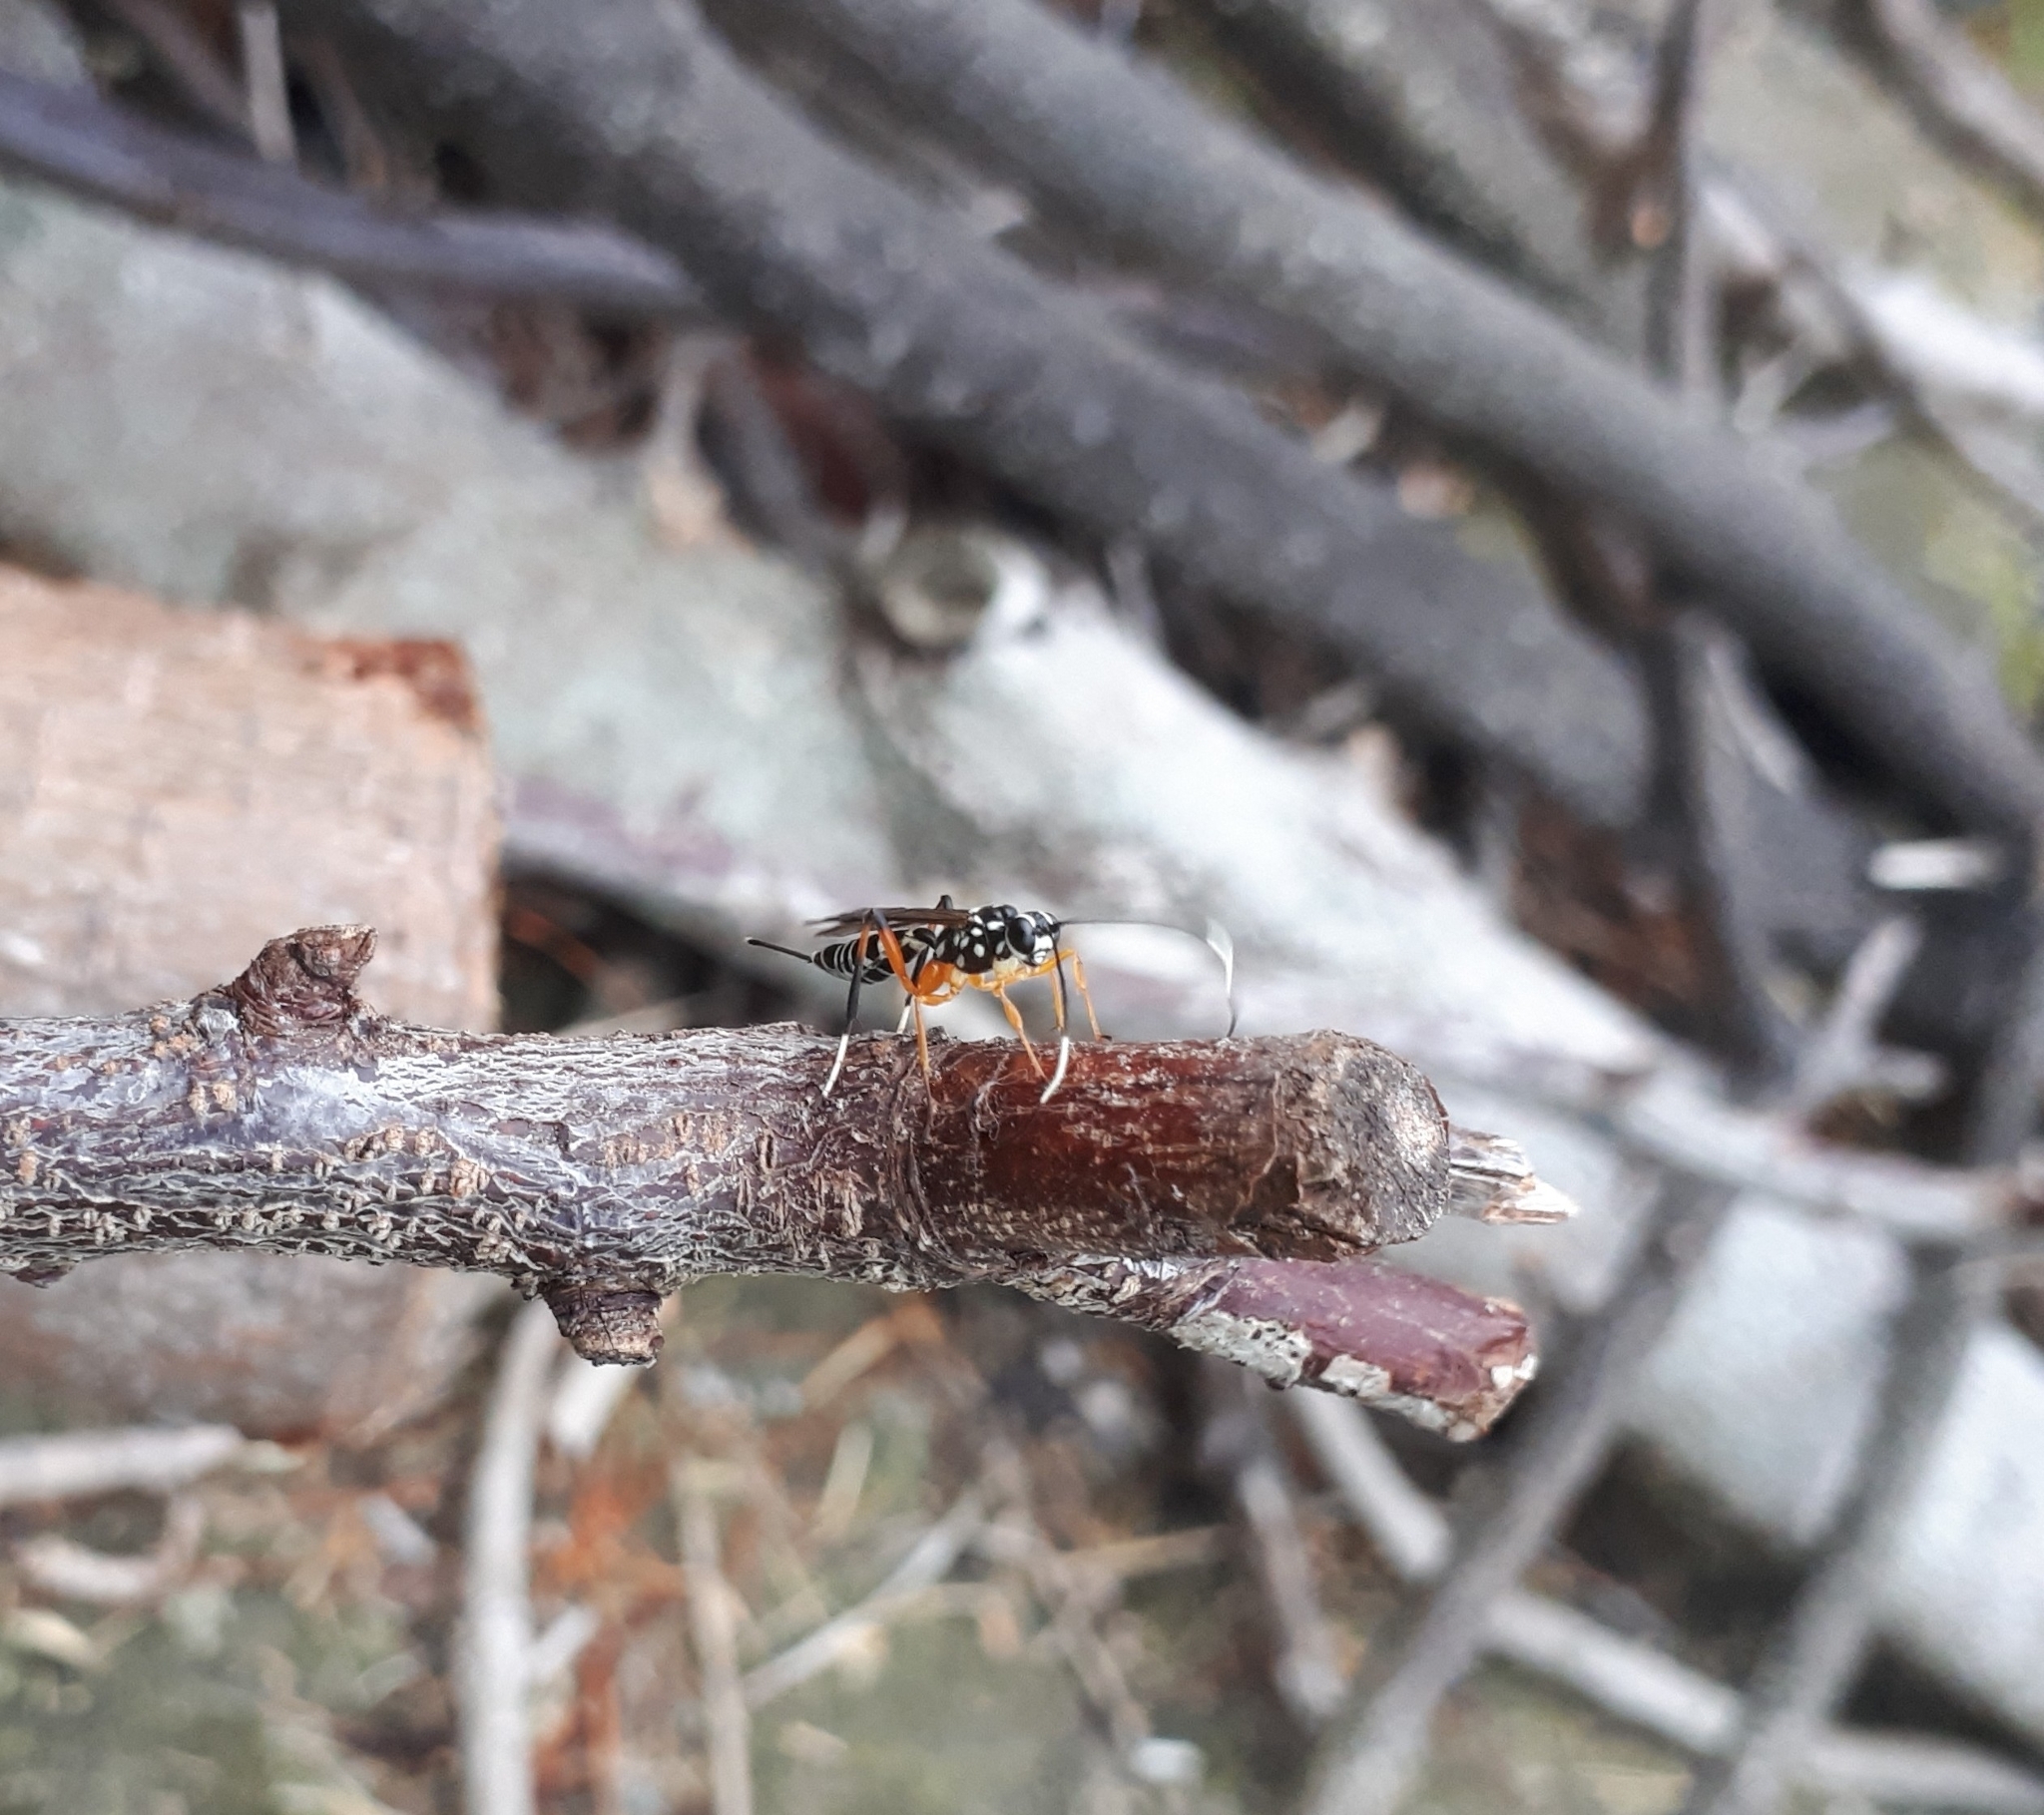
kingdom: Animalia
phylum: Arthropoda
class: Insecta
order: Hymenoptera
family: Ichneumonidae
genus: Xanthocryptus
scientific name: Xanthocryptus novozealandicus
